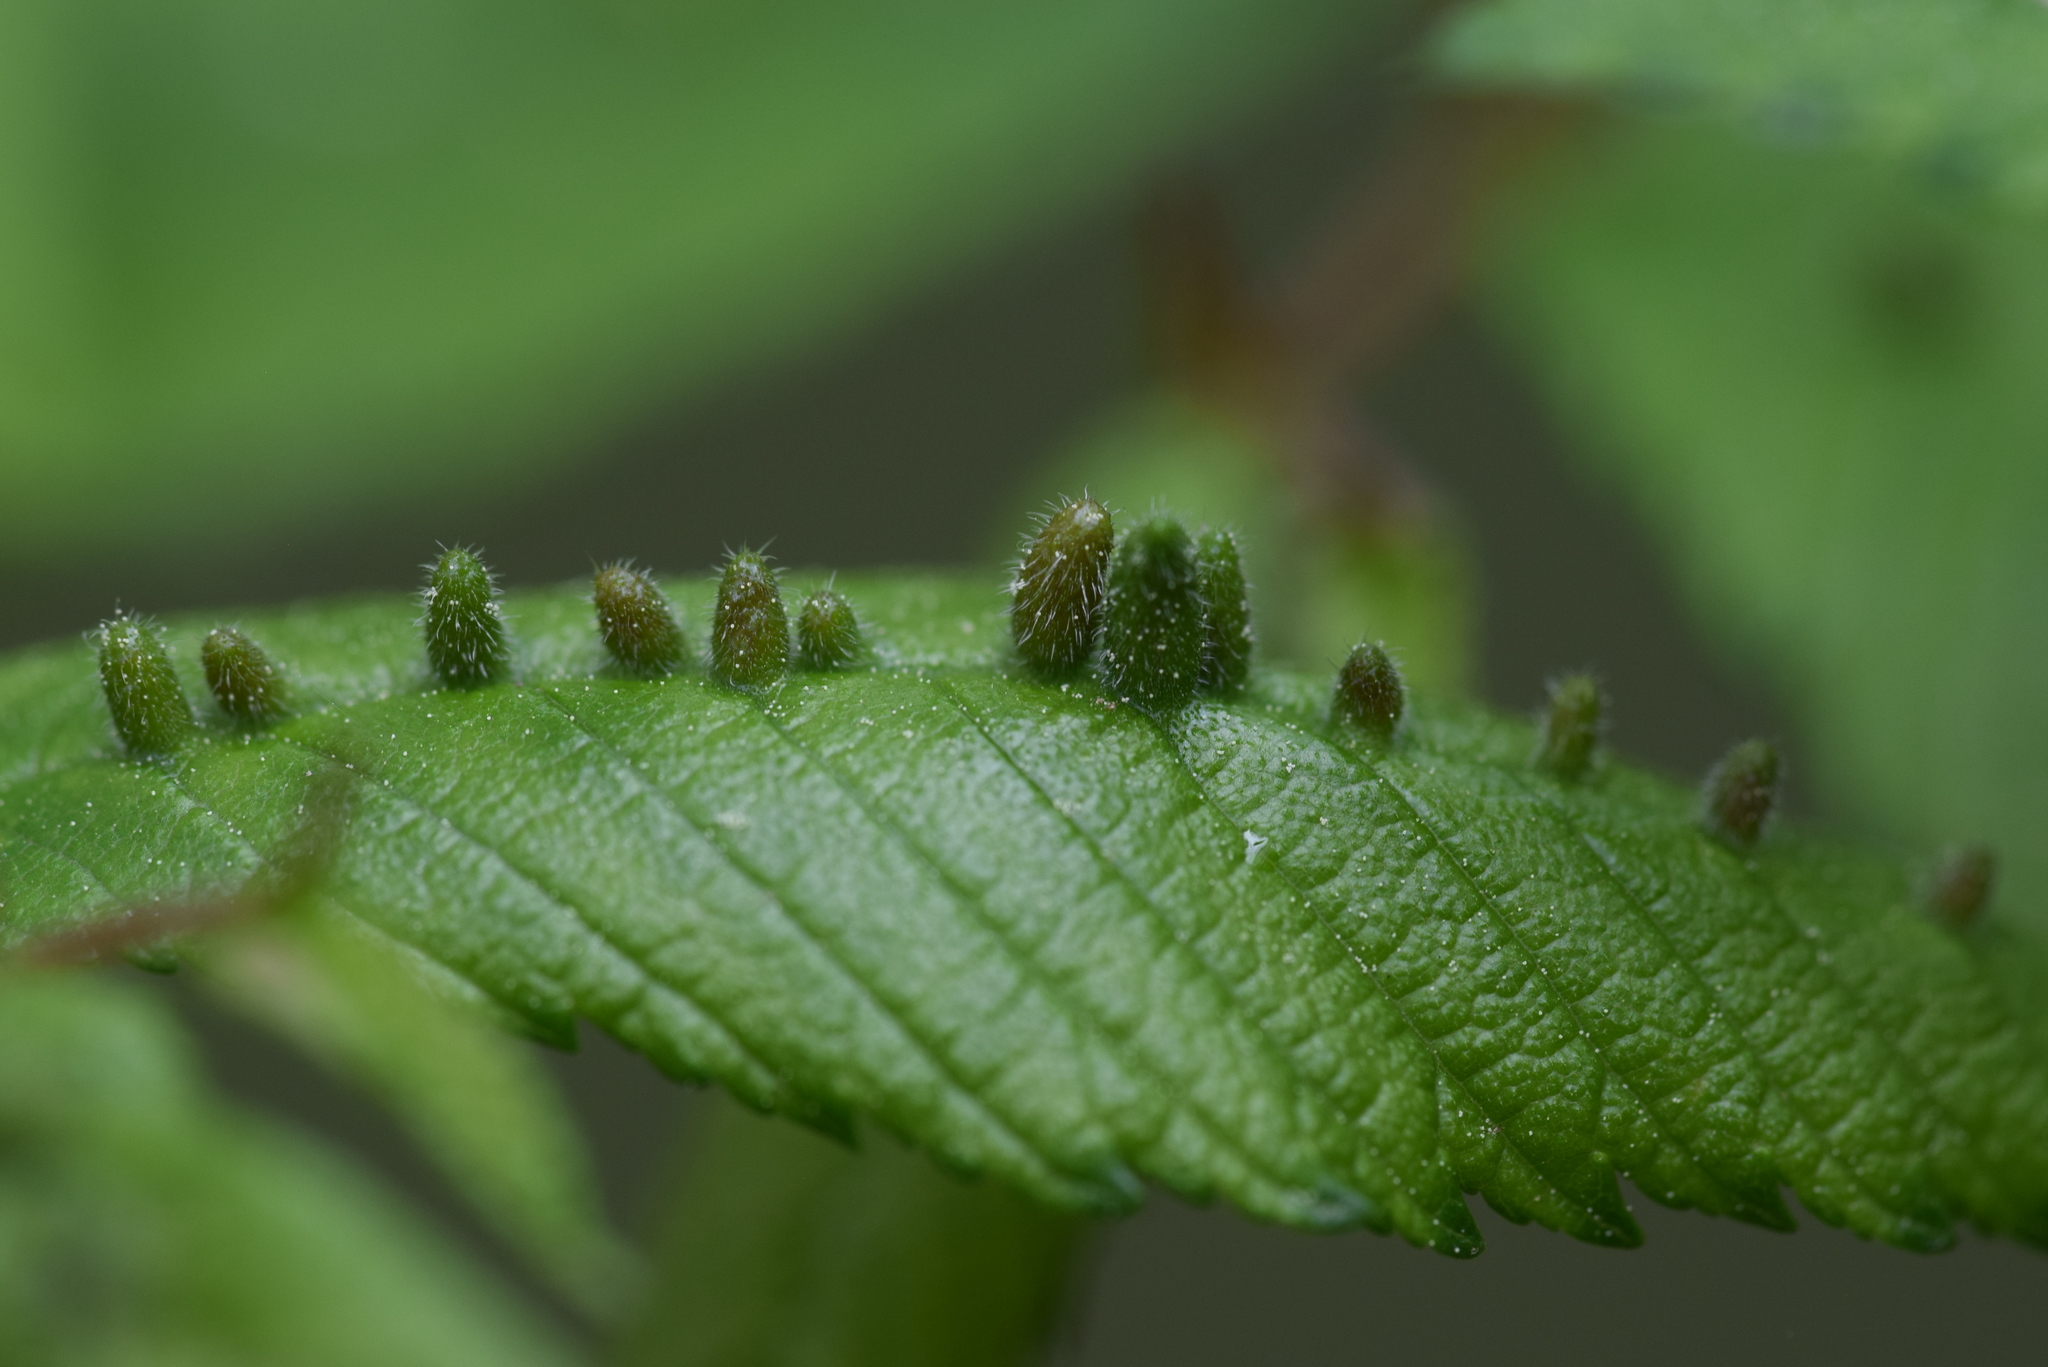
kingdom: Animalia
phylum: Arthropoda
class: Arachnida
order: Trombidiformes
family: Eriophyidae
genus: Aceria
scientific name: Aceria
